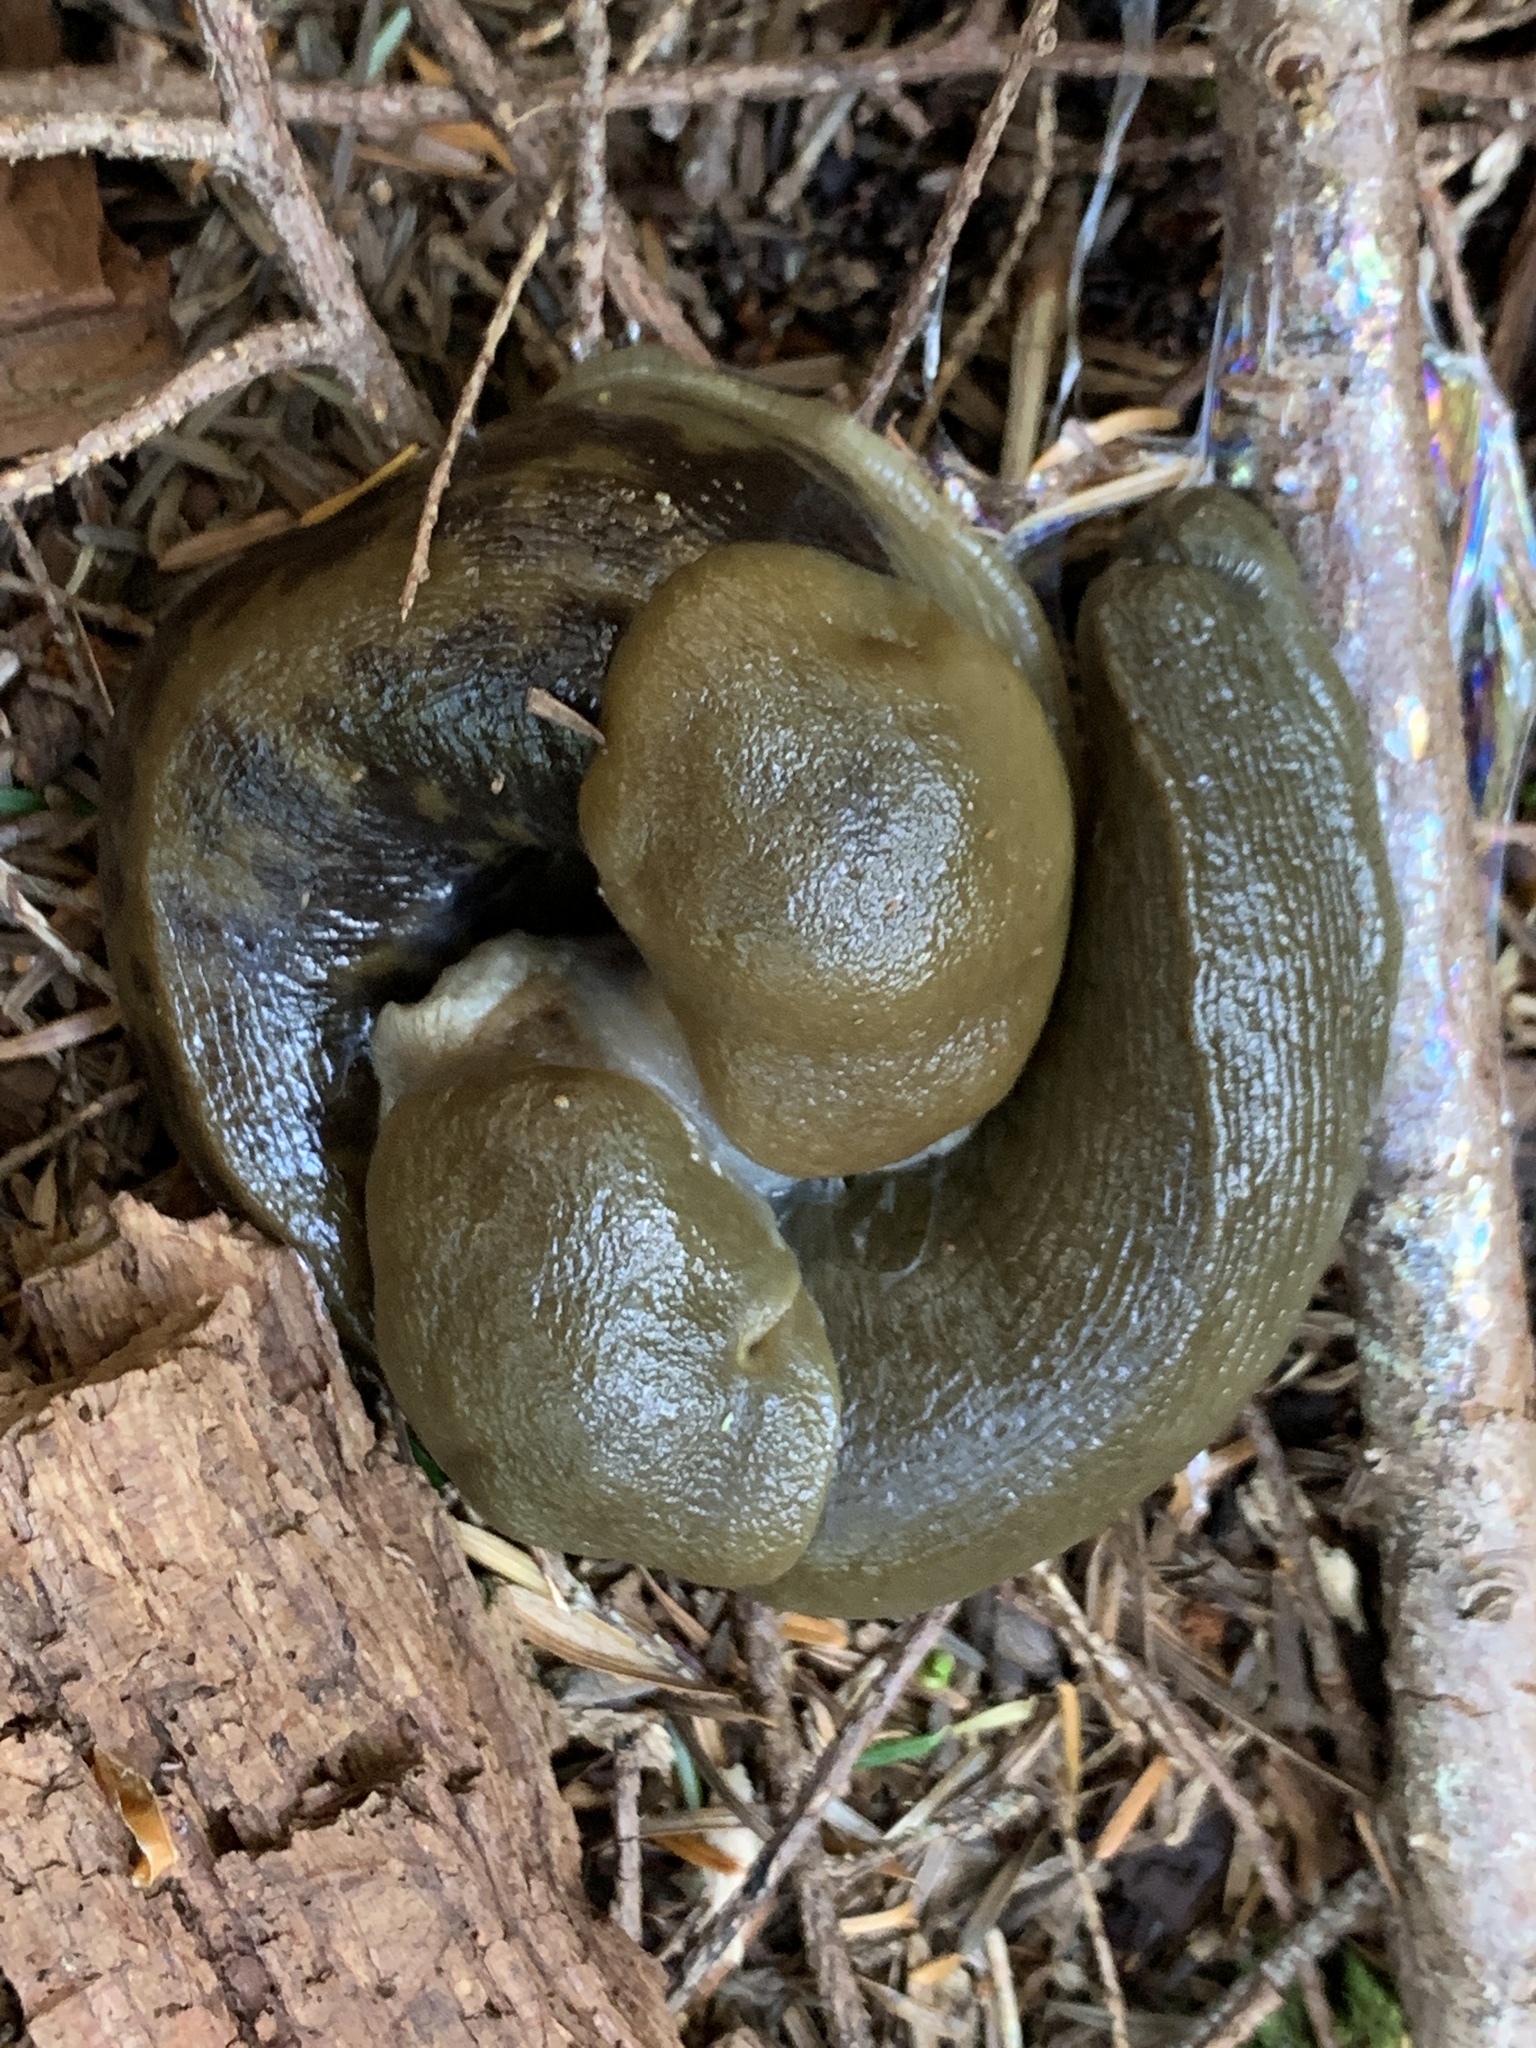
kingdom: Animalia
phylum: Mollusca
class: Gastropoda
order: Stylommatophora
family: Ariolimacidae
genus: Ariolimax
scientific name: Ariolimax columbianus
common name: Pacific banana slug
